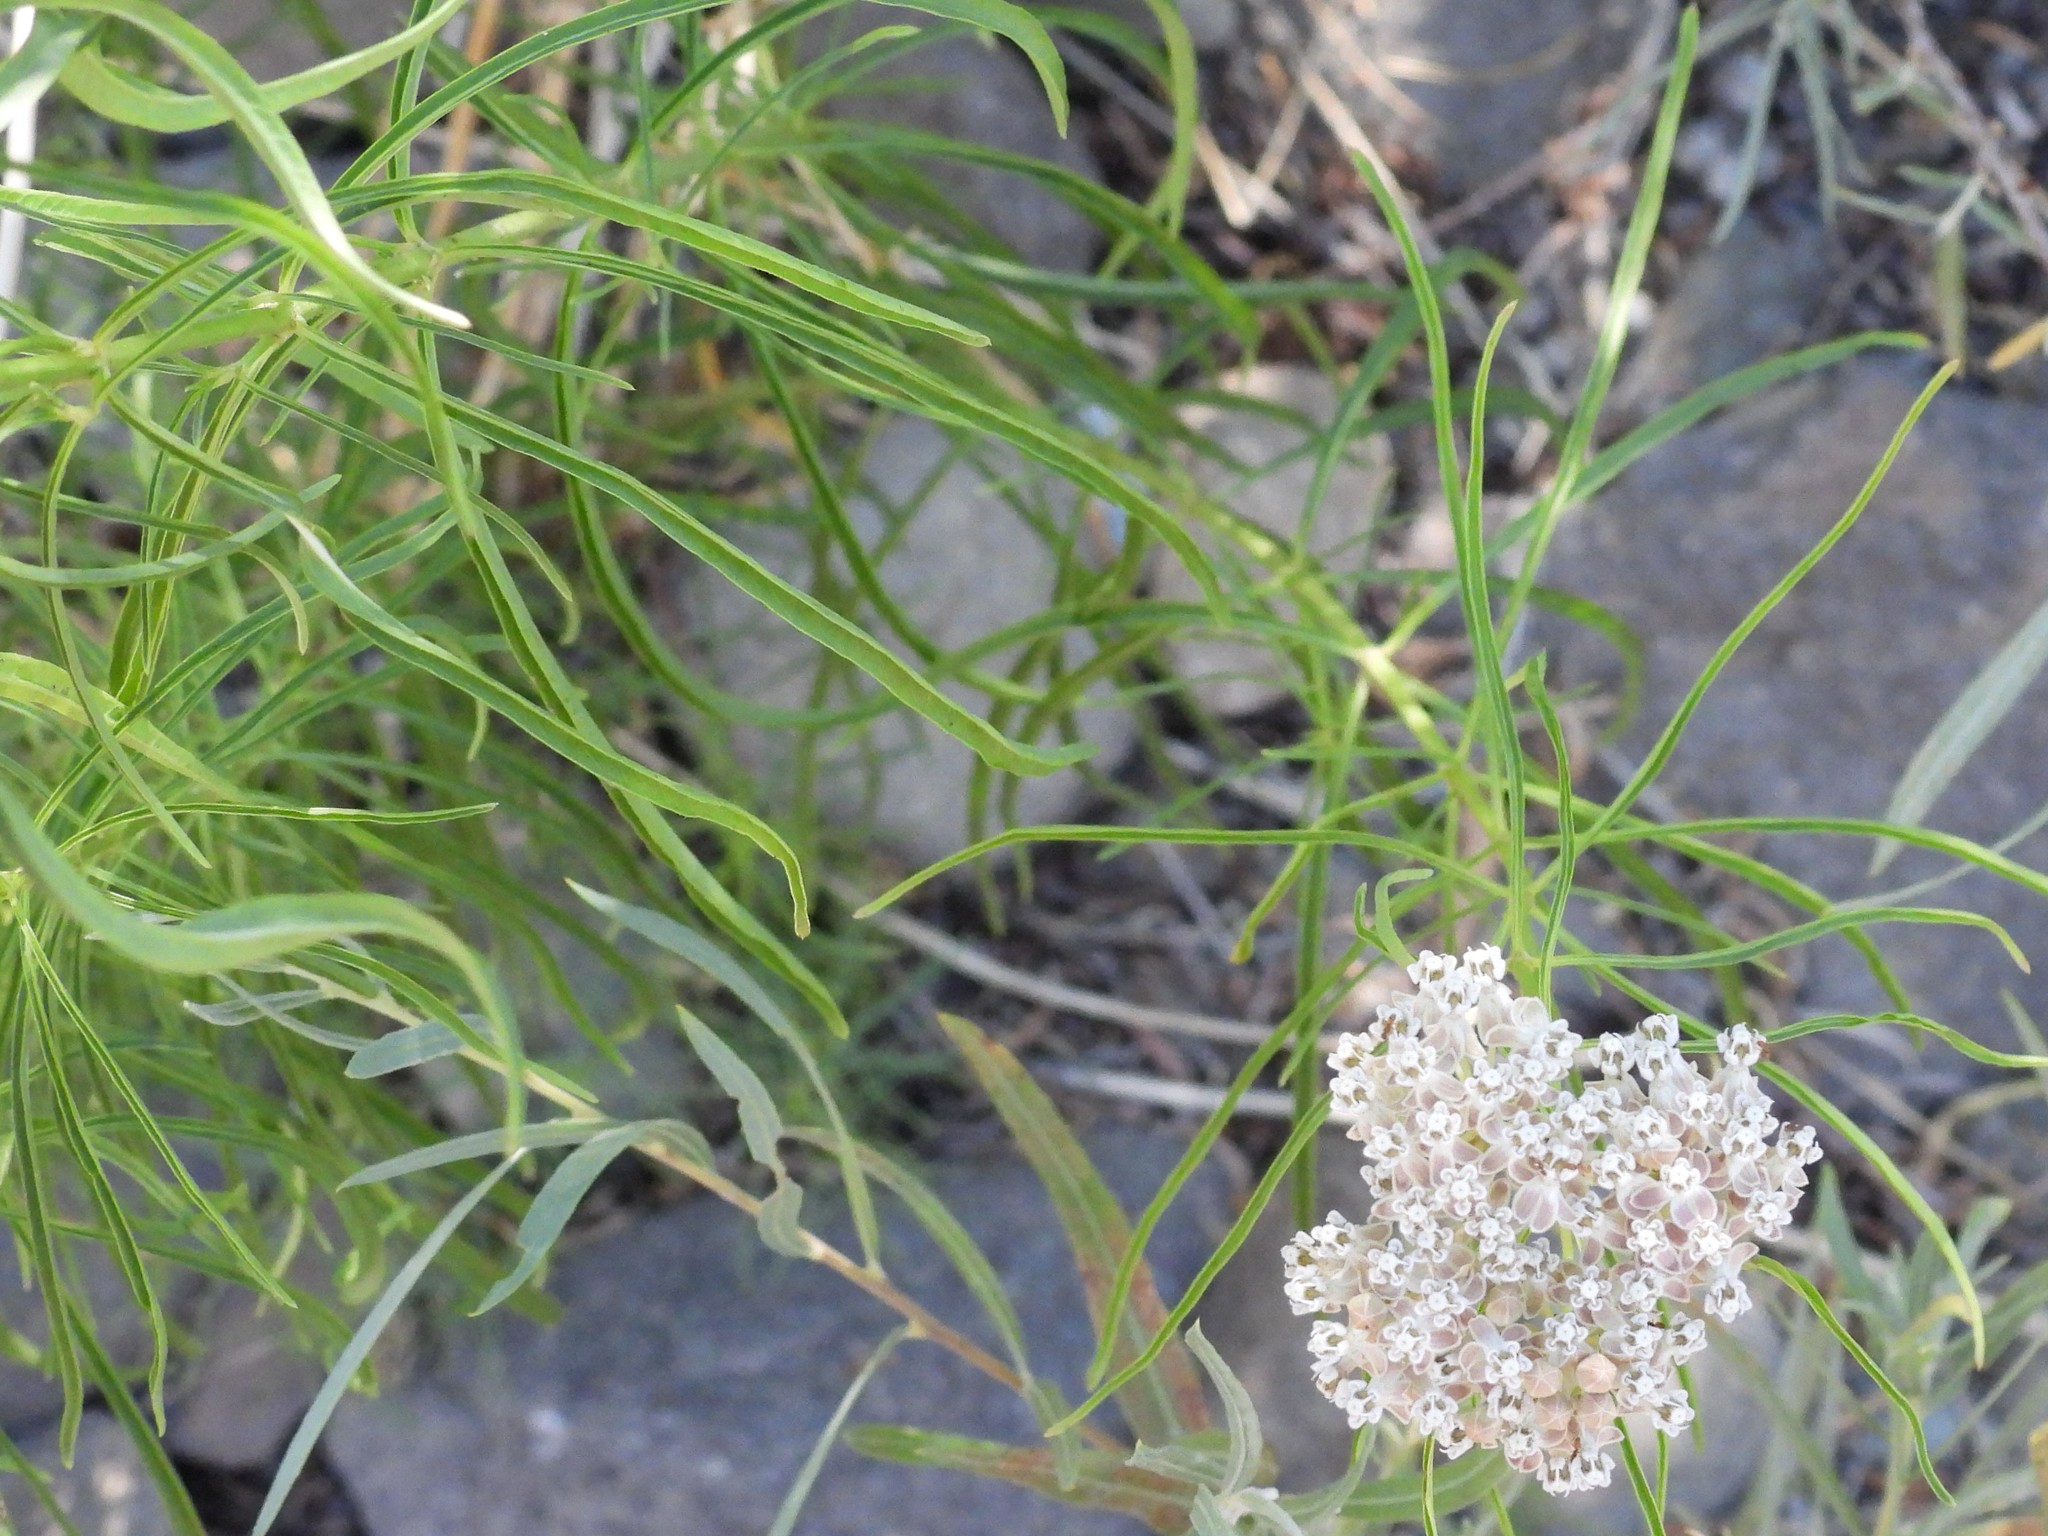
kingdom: Plantae
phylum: Tracheophyta
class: Magnoliopsida
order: Gentianales
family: Apocynaceae
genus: Asclepias
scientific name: Asclepias fascicularis
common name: Mexican milkweed
